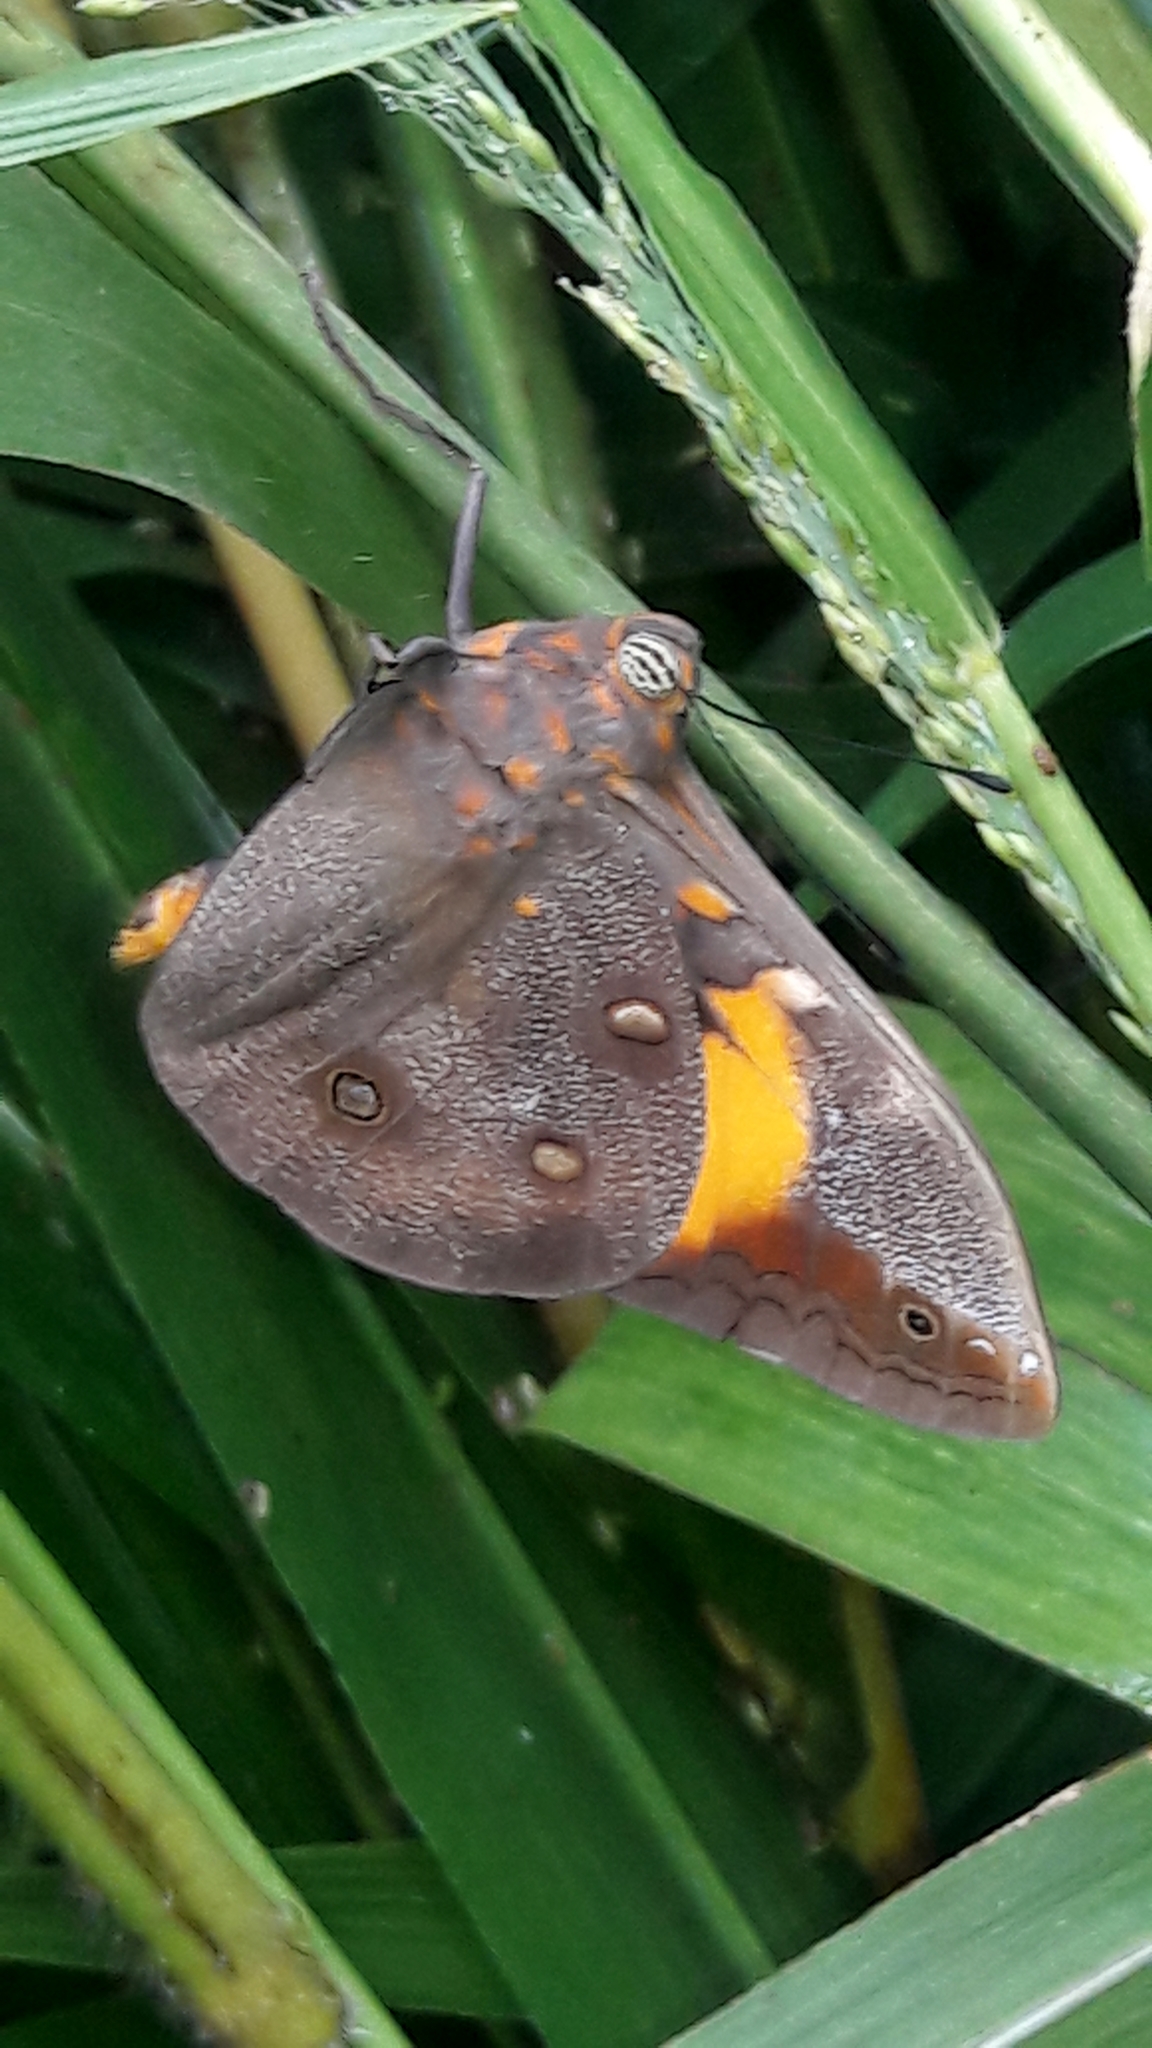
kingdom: Animalia
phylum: Arthropoda
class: Insecta
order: Lepidoptera
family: Nymphalidae
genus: Brassolis
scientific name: Brassolis sophorae
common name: Coconut caterpillar
